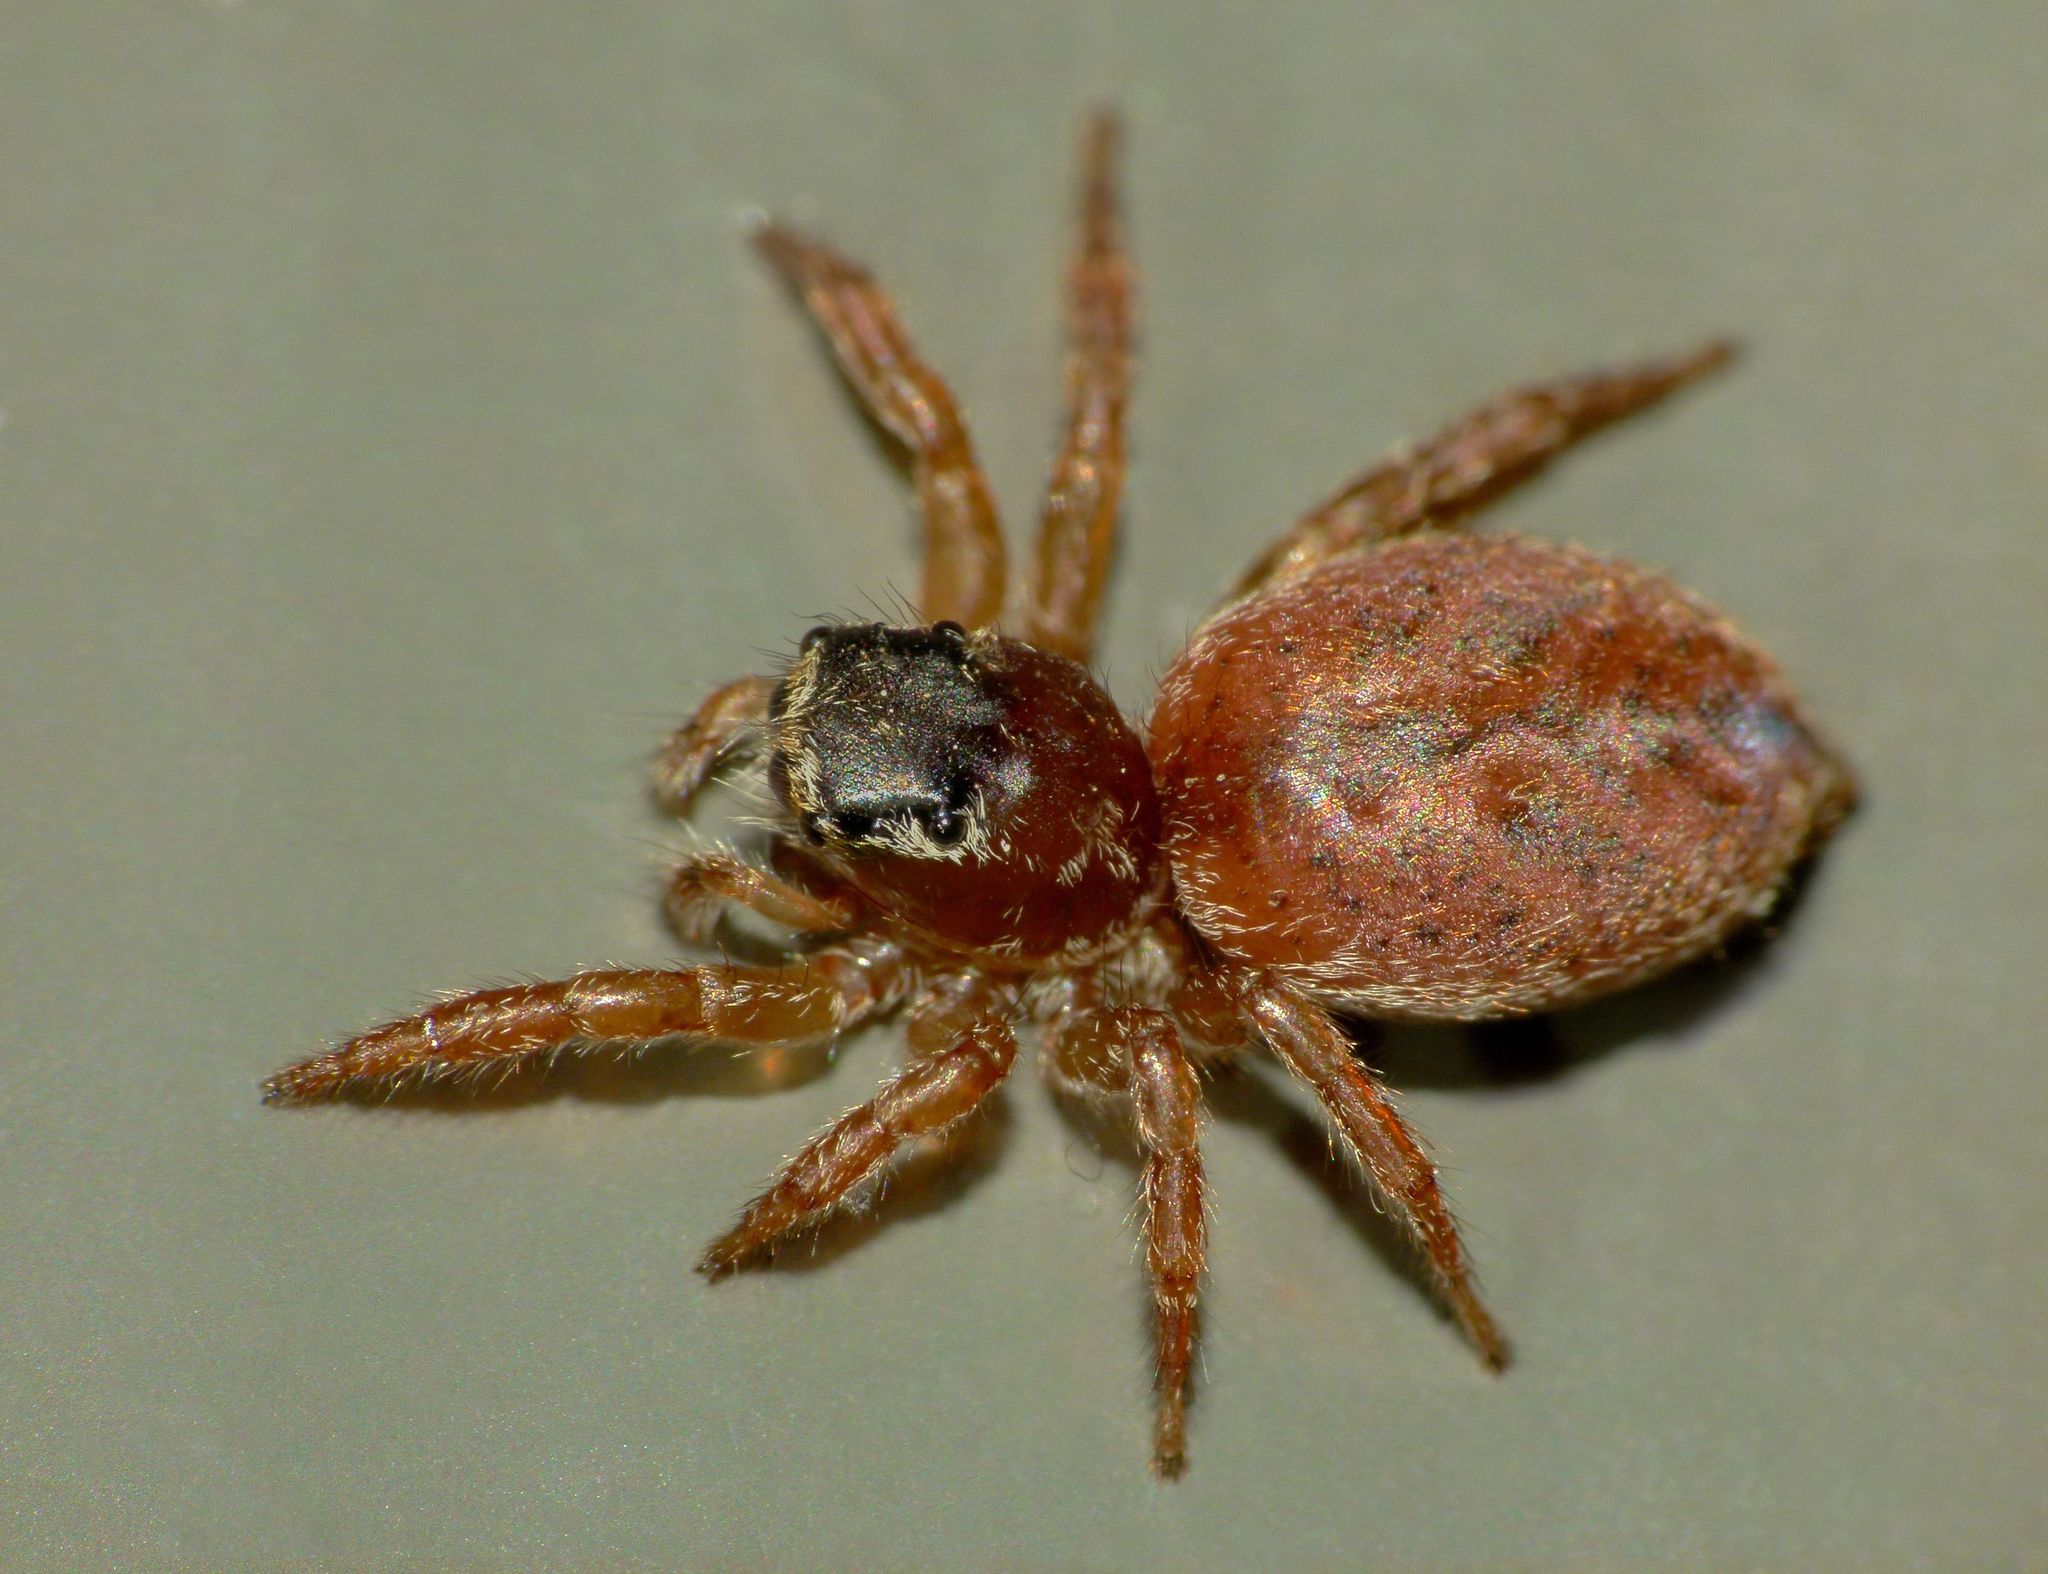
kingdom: Animalia
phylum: Arthropoda
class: Arachnida
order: Araneae
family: Salticidae
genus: Trite
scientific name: Trite auricoma
